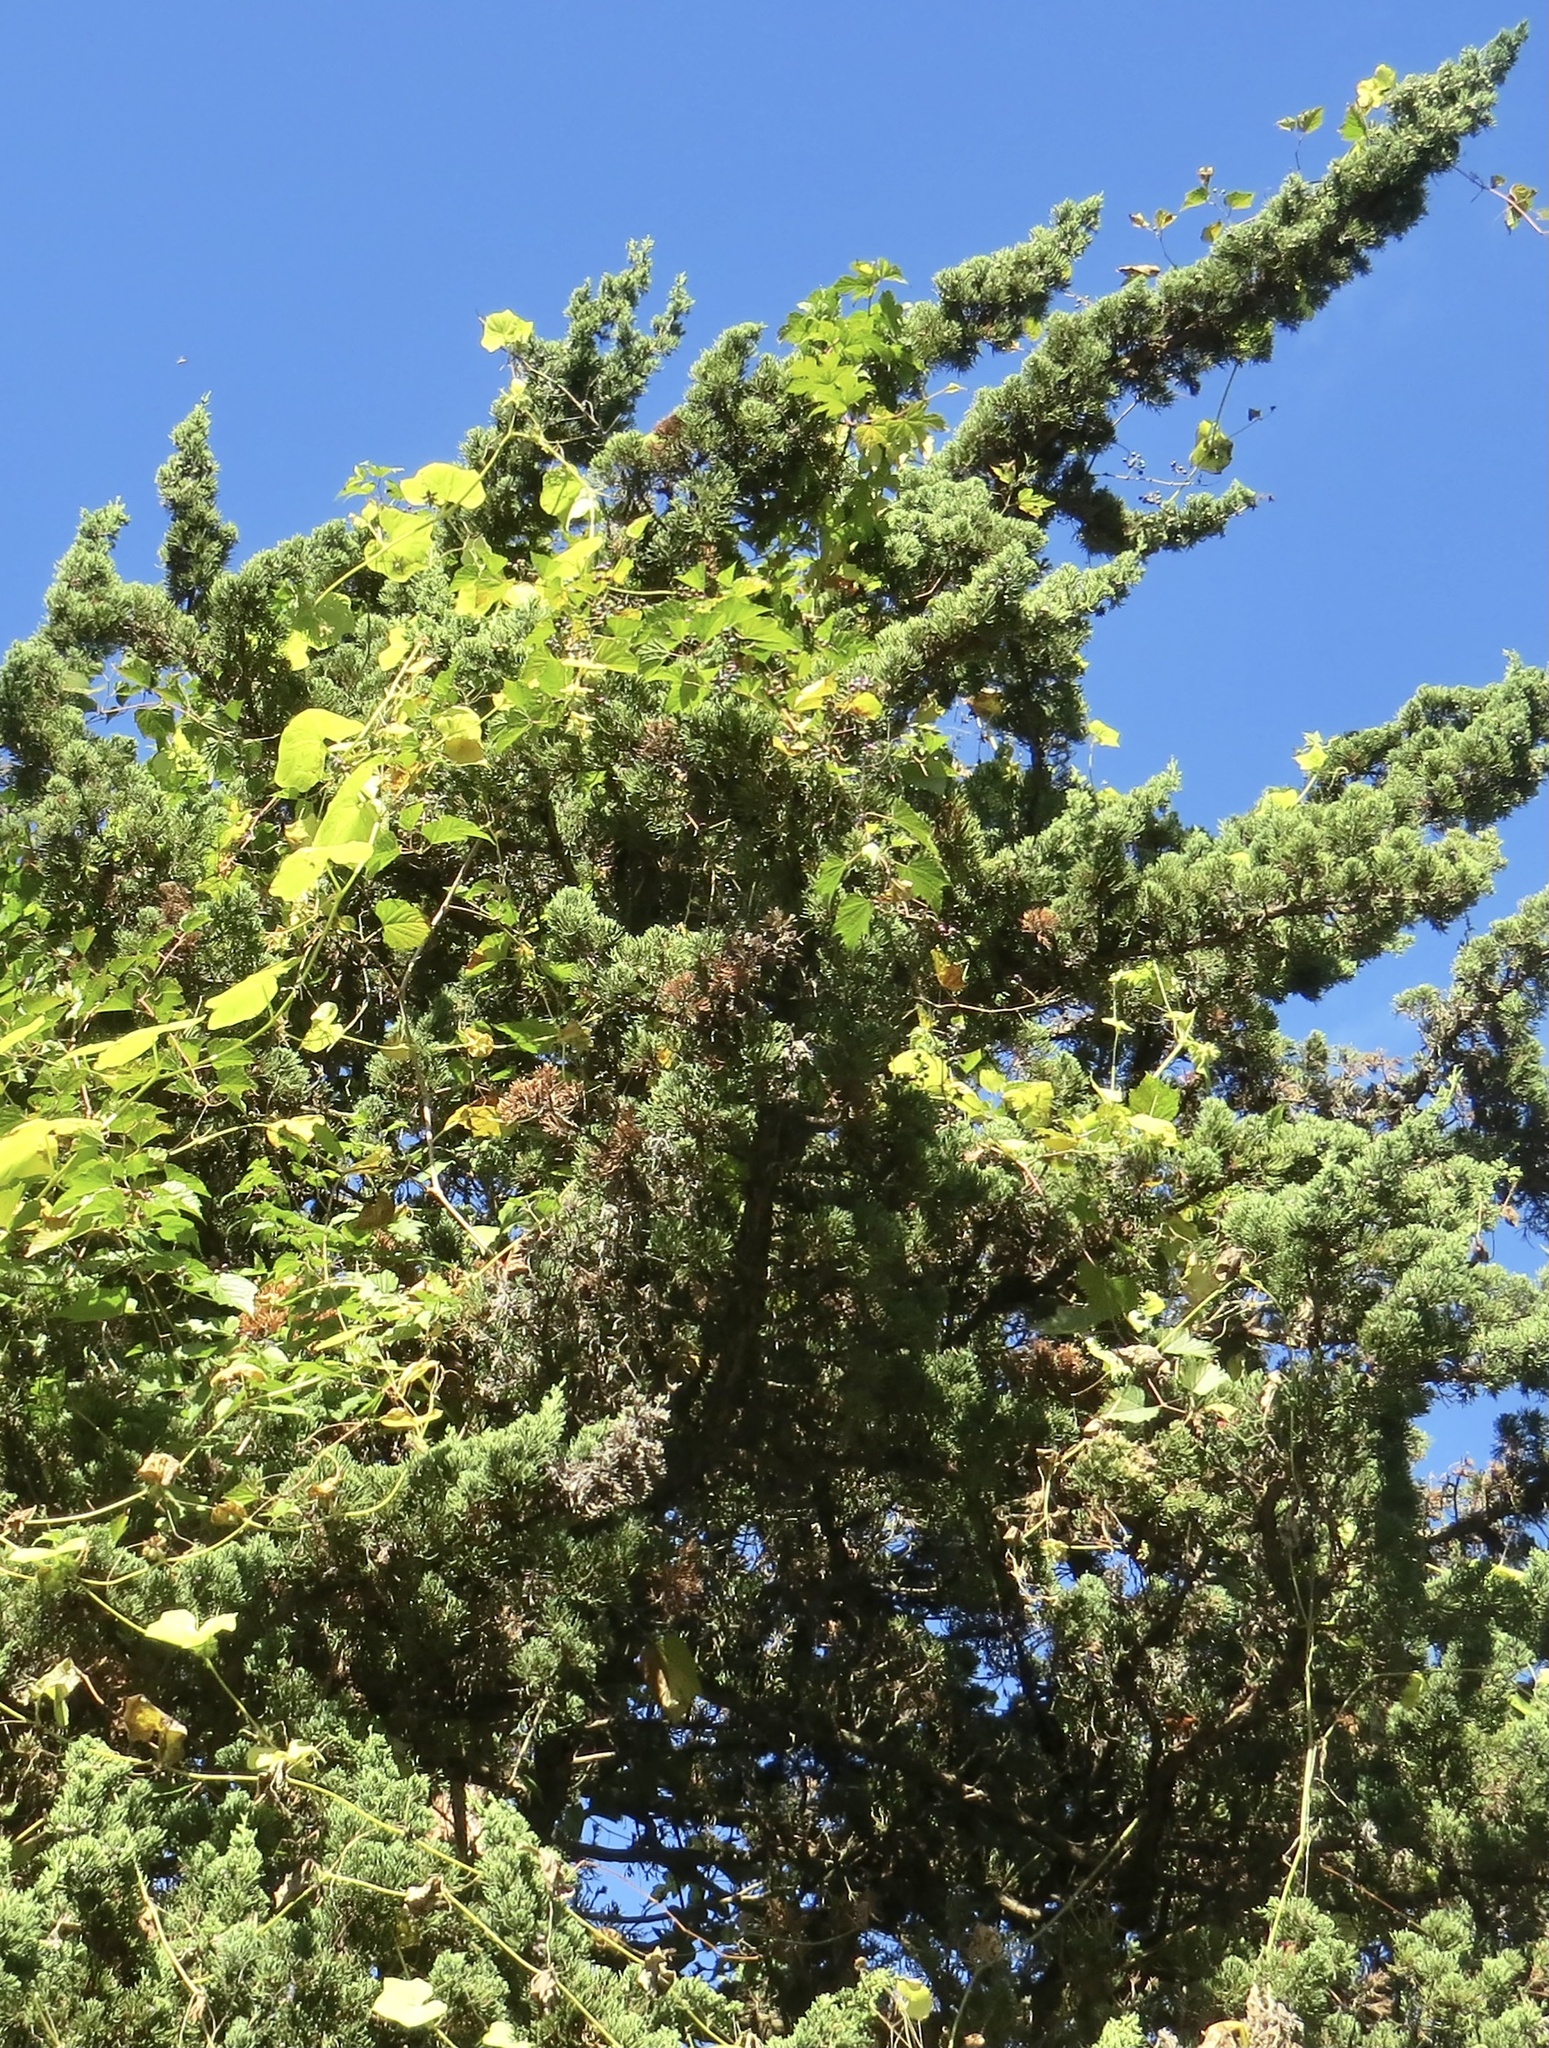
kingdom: Plantae
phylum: Tracheophyta
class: Magnoliopsida
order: Cucurbitales
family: Cucurbitaceae
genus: Sicyos
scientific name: Sicyos angulatus
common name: Angled burr cucumber
